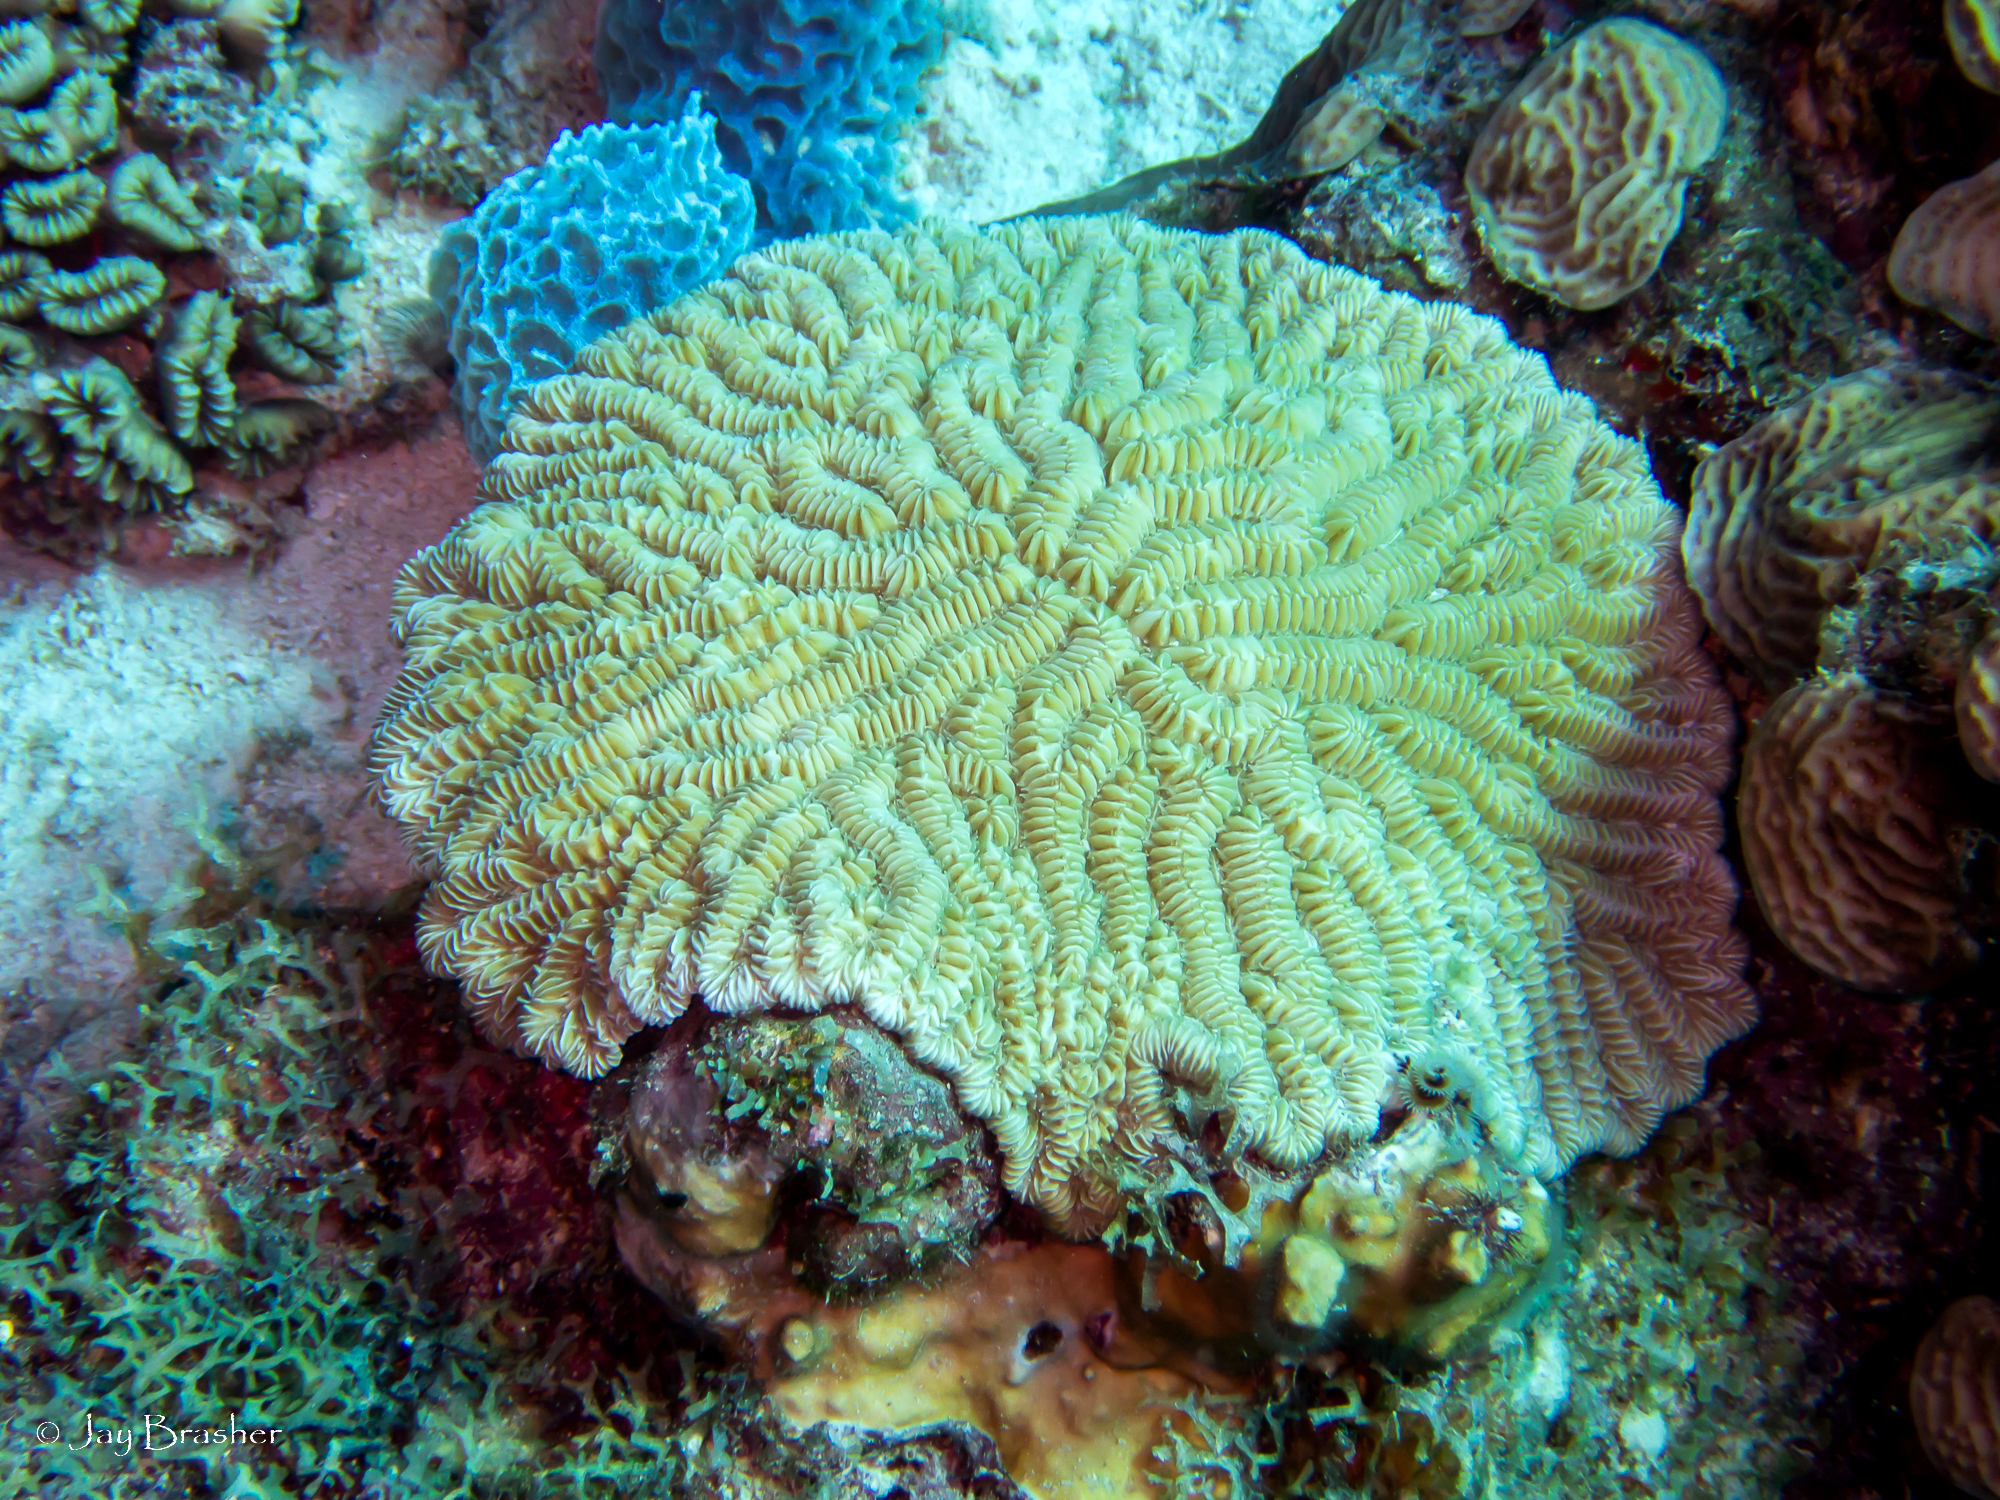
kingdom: Animalia
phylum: Cnidaria
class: Anthozoa
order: Scleractinia
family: Meandrinidae
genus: Meandrina
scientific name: Meandrina meandrites
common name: Maze coral
